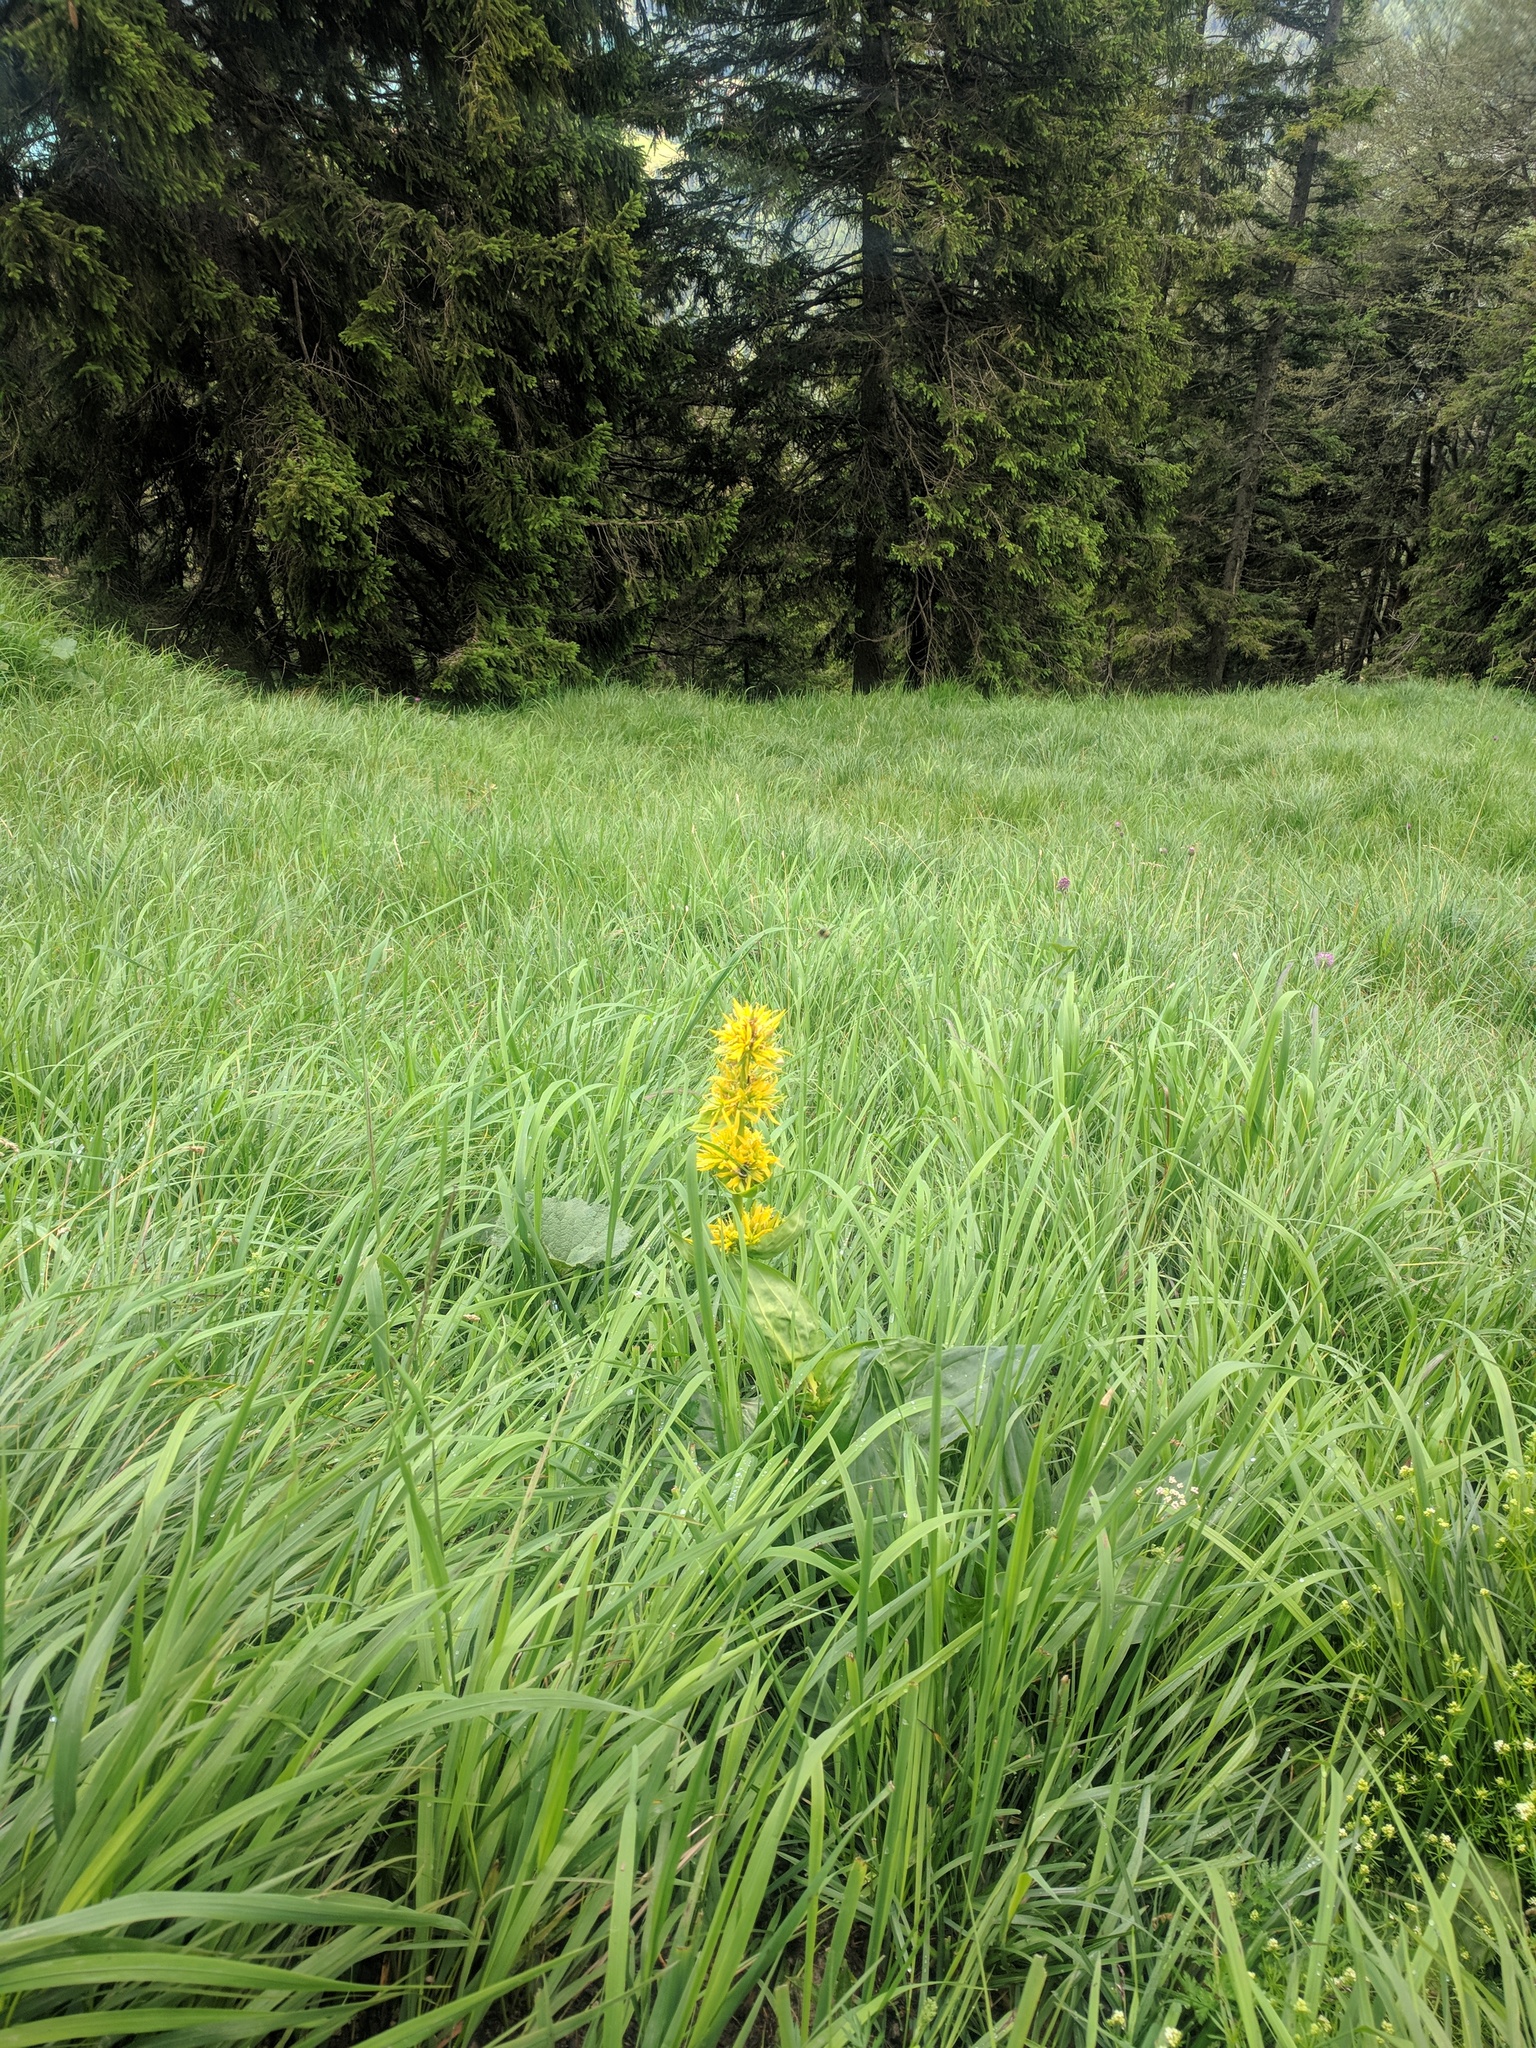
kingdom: Plantae
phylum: Tracheophyta
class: Magnoliopsida
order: Gentianales
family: Gentianaceae
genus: Gentiana
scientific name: Gentiana lutea
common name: Great yellow gentian
